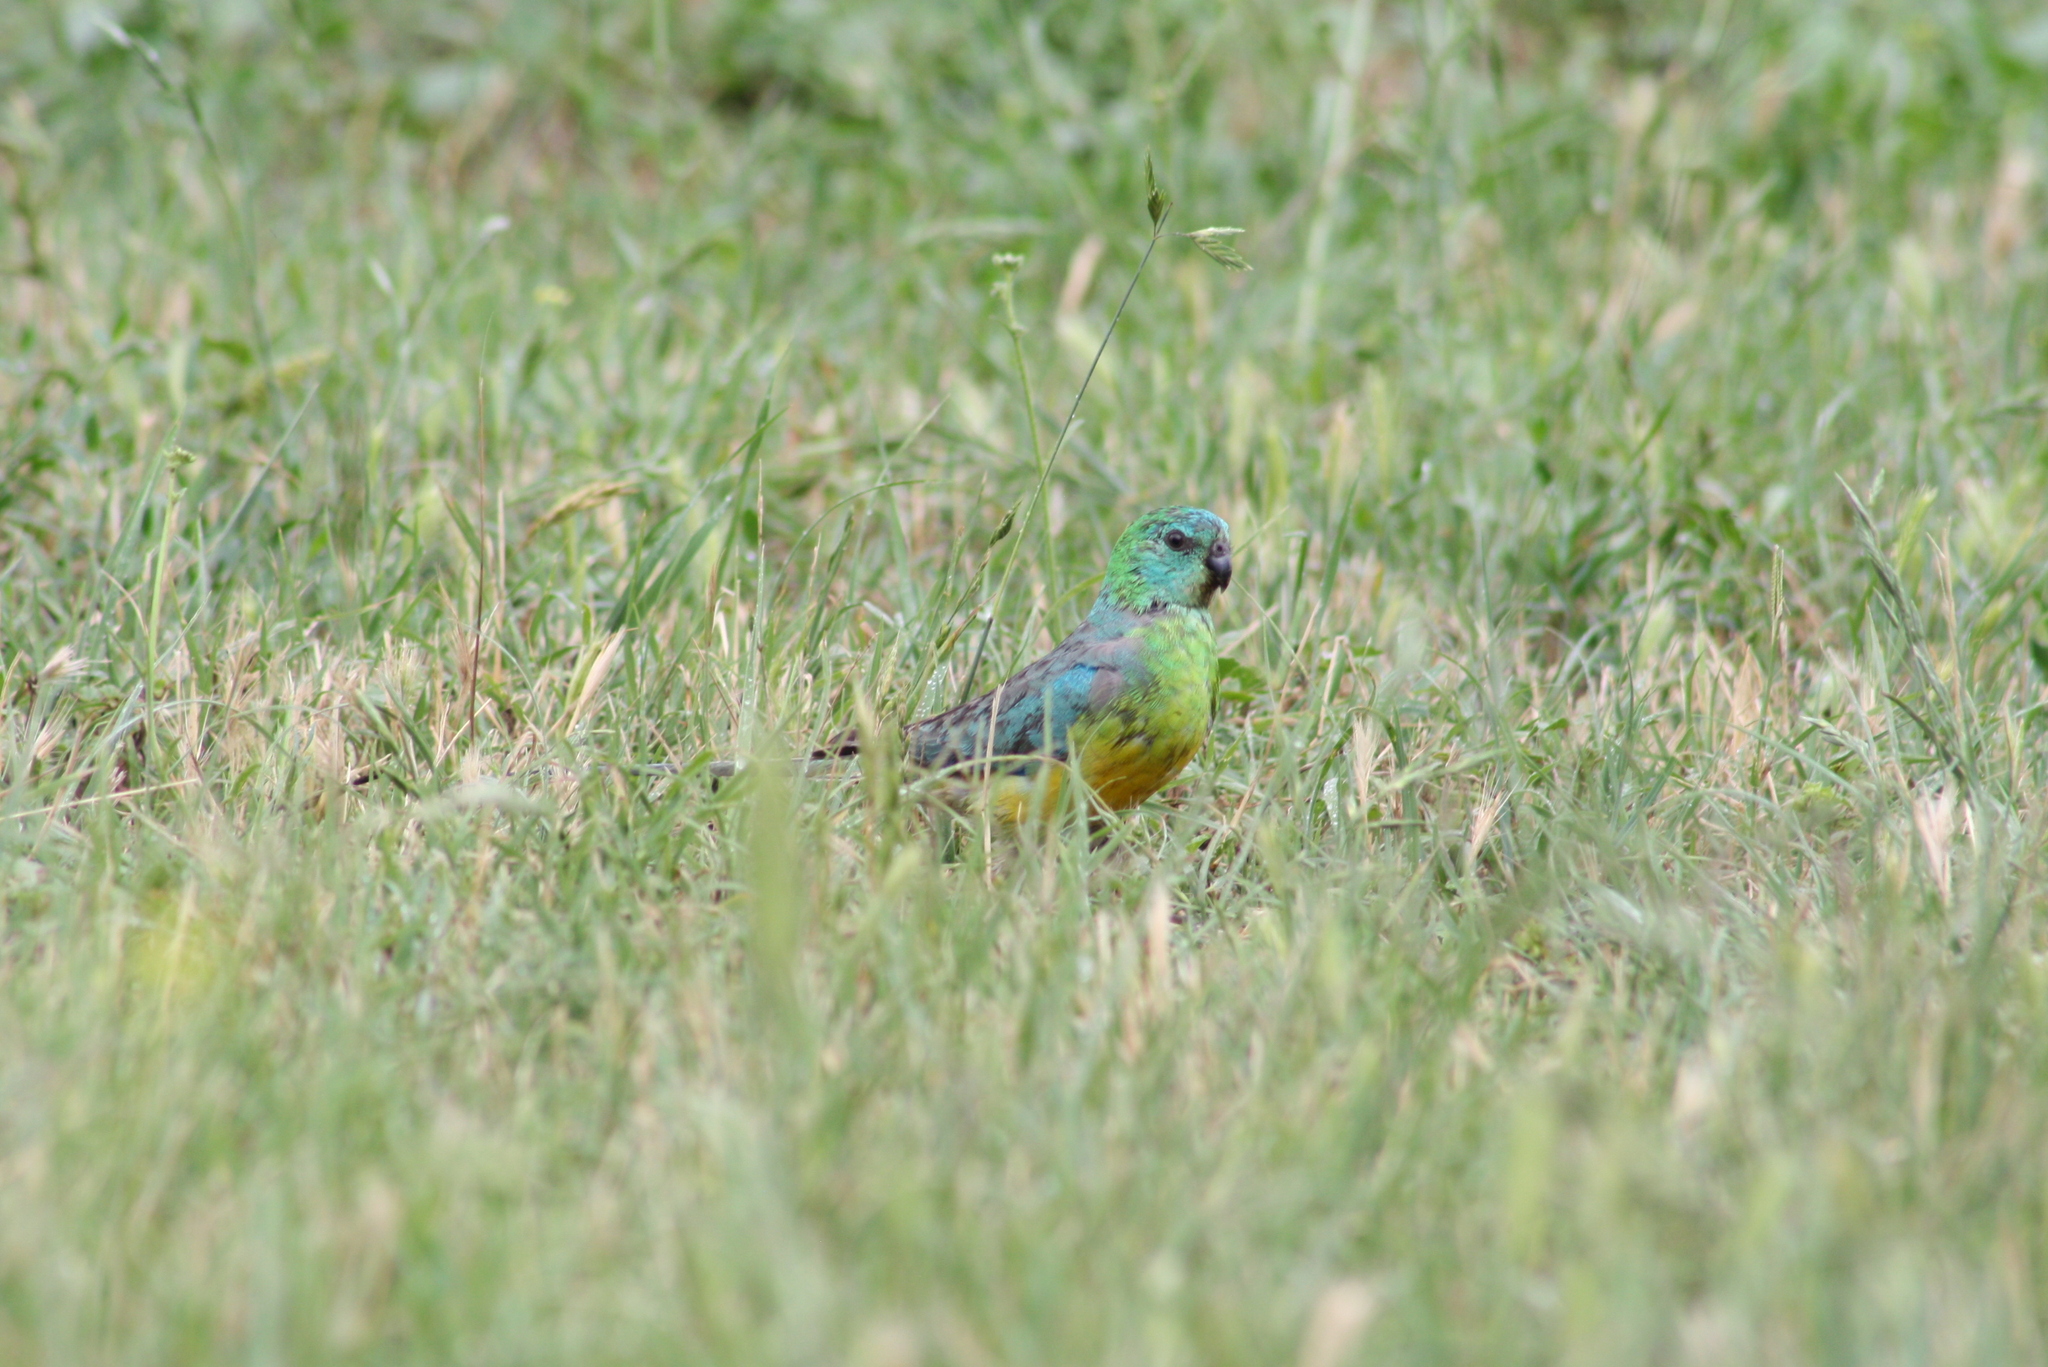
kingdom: Animalia
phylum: Chordata
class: Aves
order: Psittaciformes
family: Psittacidae
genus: Psephotus
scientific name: Psephotus haematonotus
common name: Red-rumped parrot
